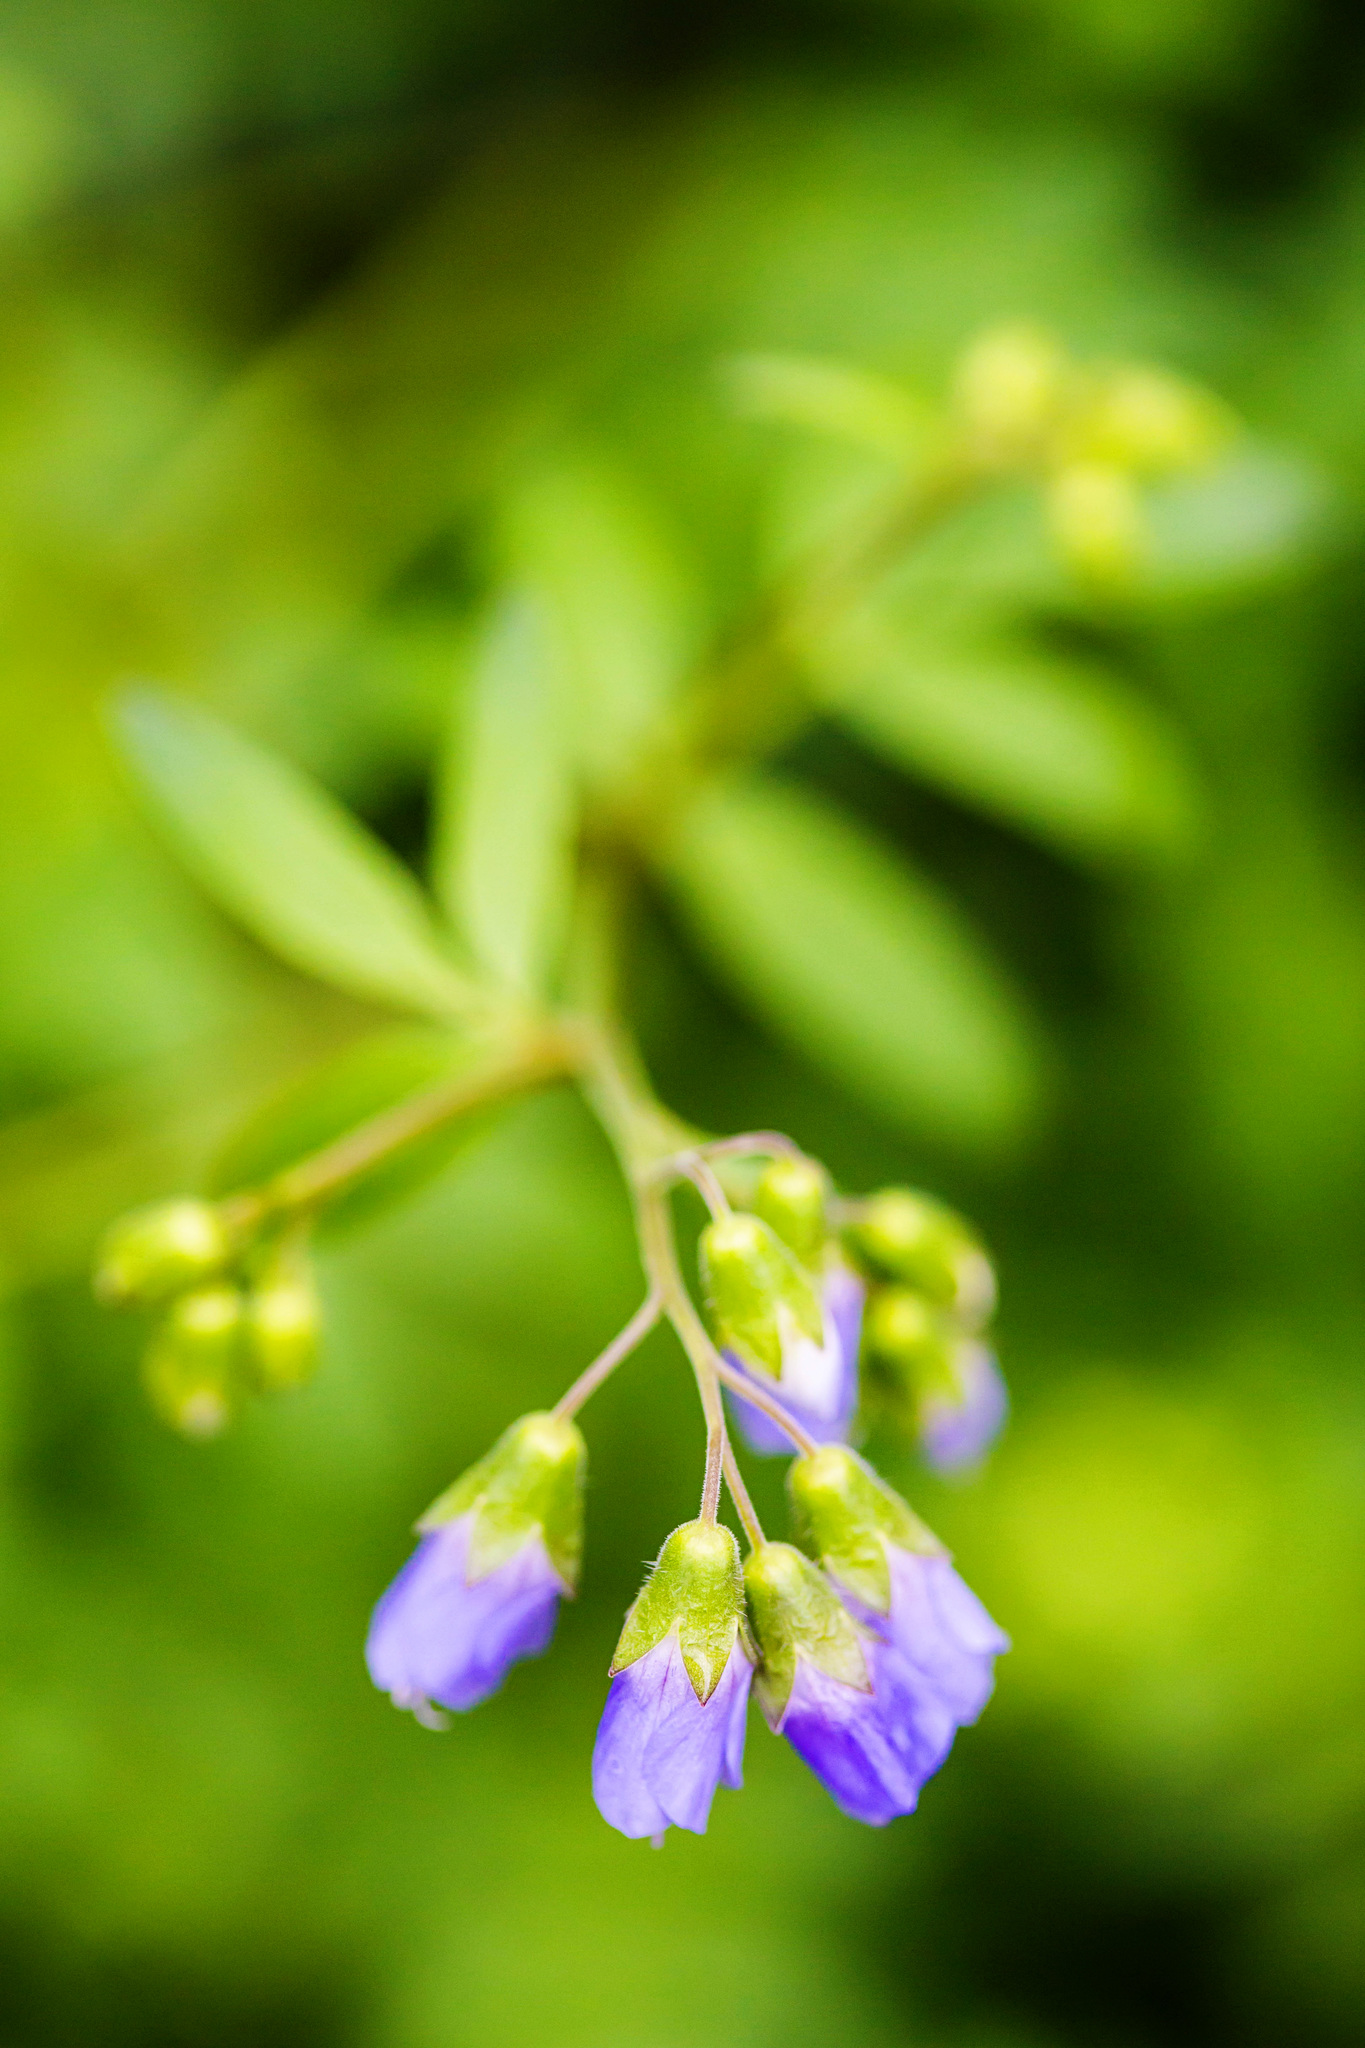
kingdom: Plantae
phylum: Tracheophyta
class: Magnoliopsida
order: Ericales
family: Polemoniaceae
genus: Polemonium
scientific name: Polemonium reptans
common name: Creeping jacob's-ladder
